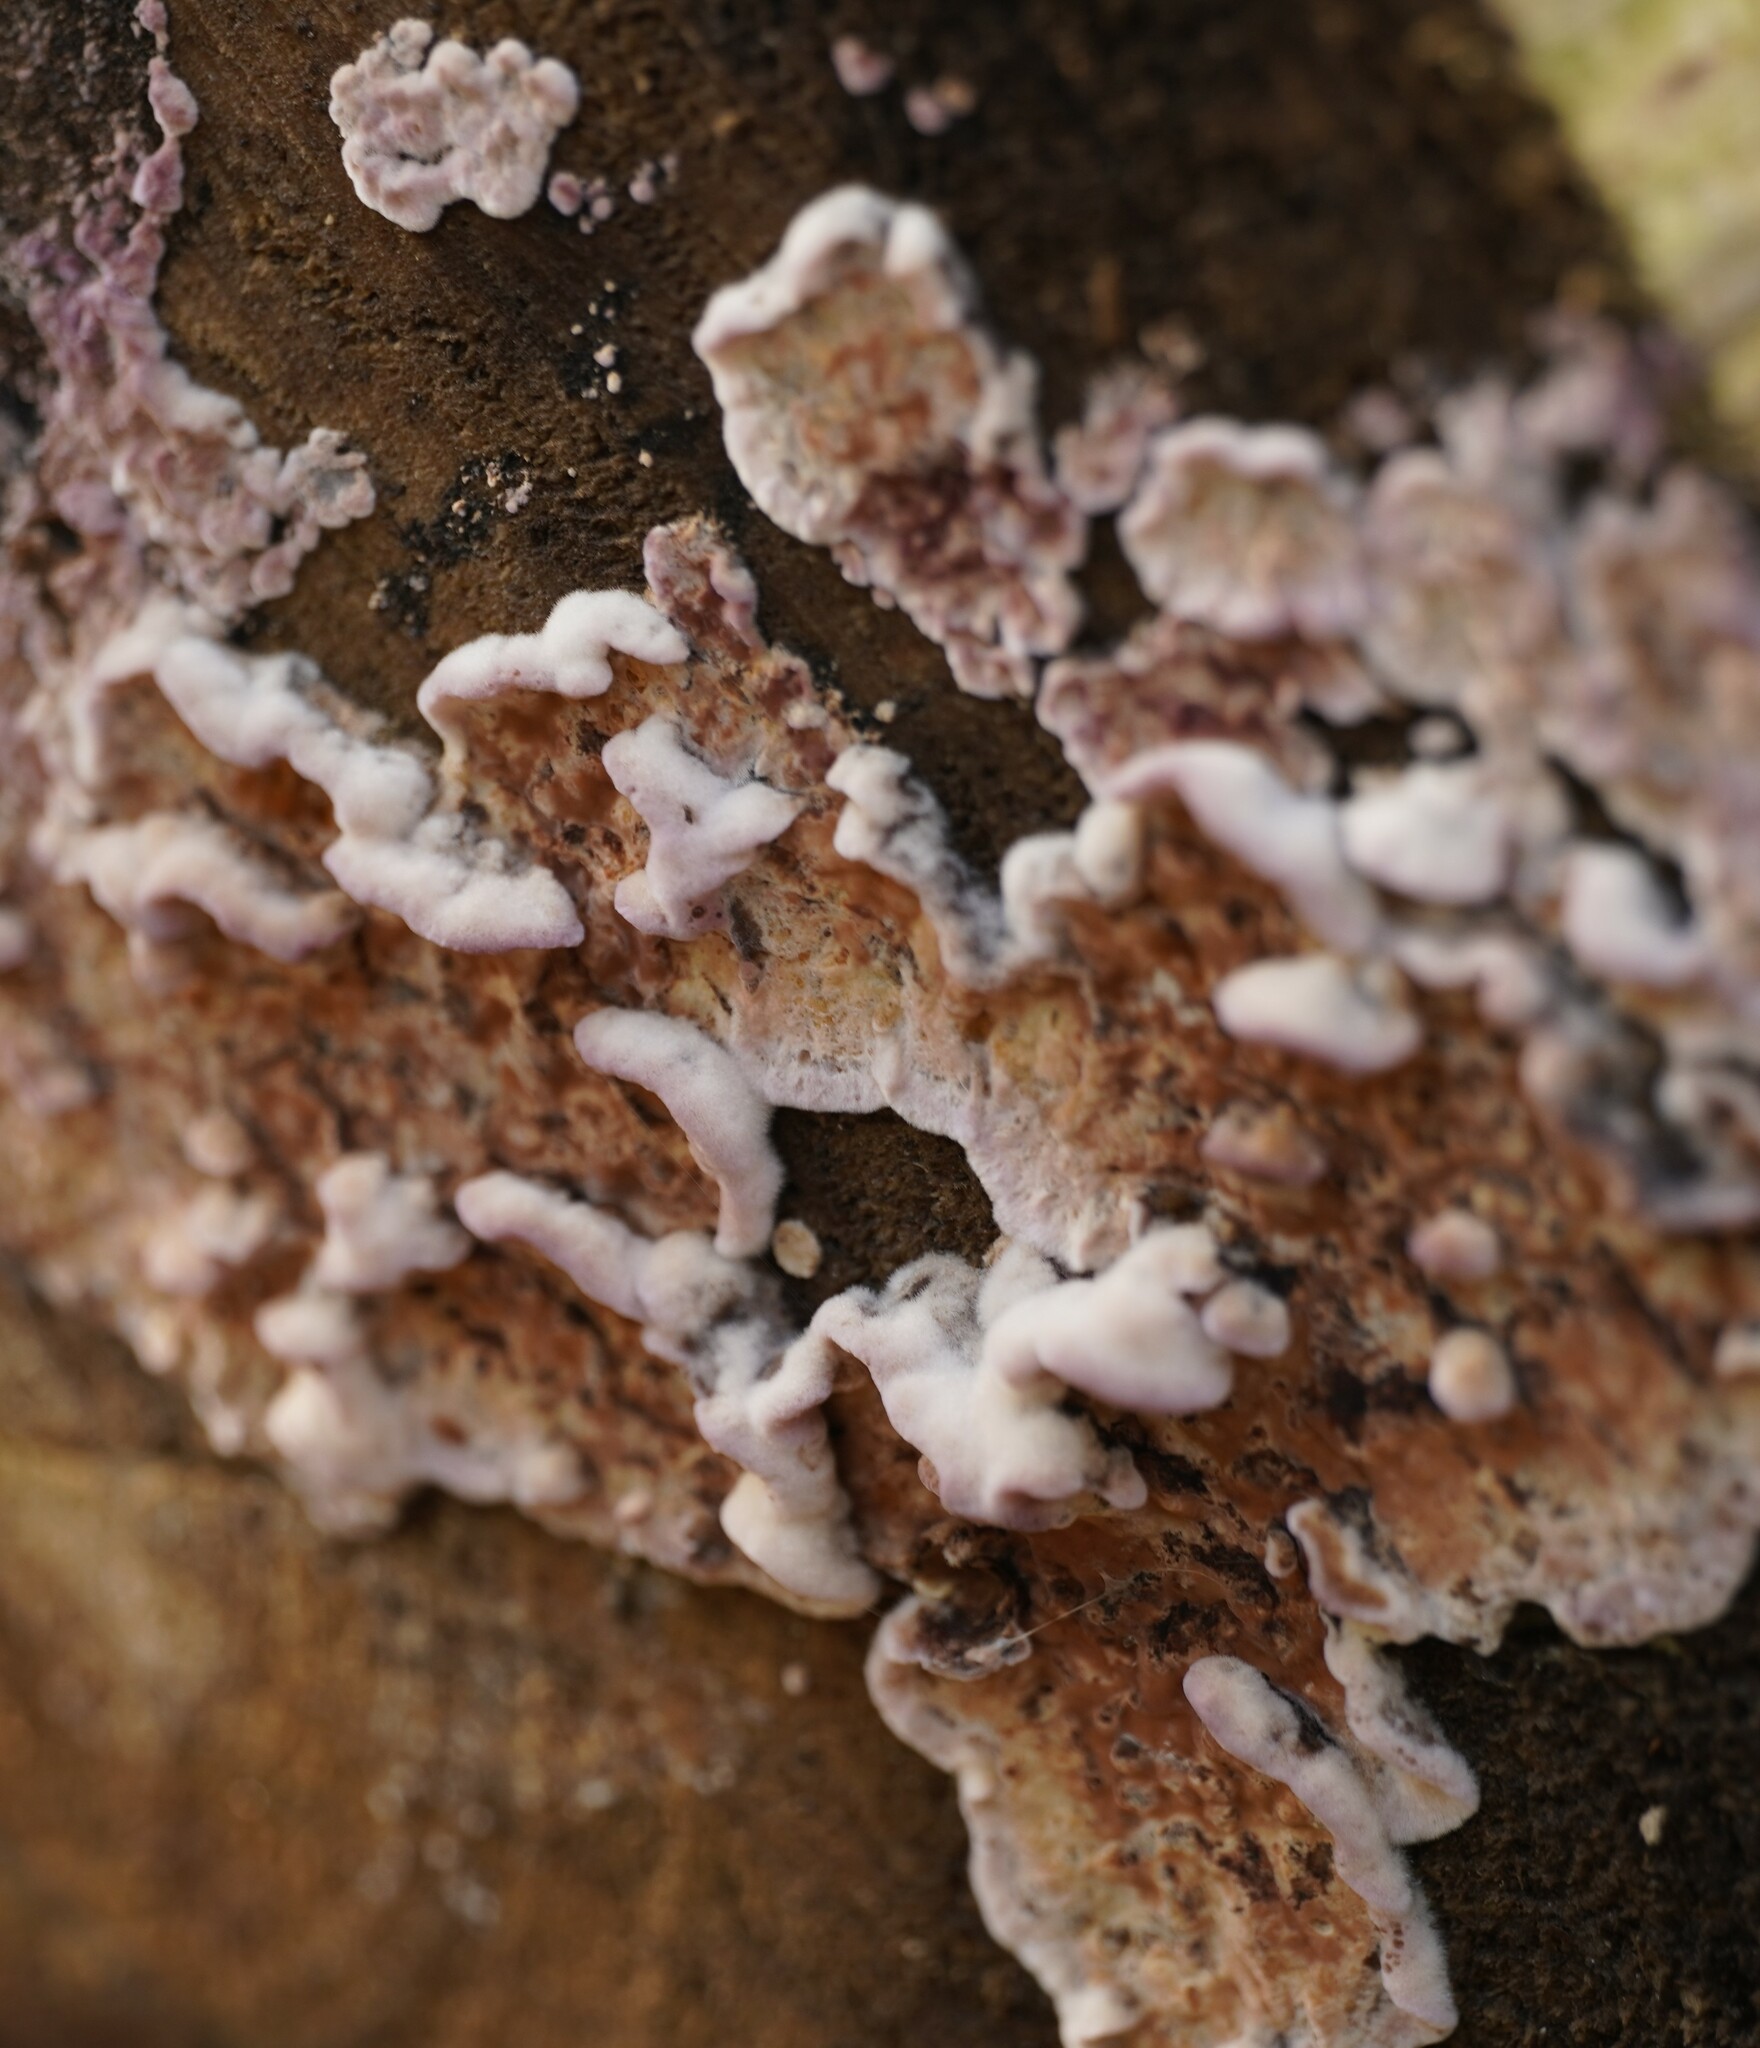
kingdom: Fungi
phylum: Basidiomycota
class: Agaricomycetes
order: Agaricales
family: Cyphellaceae
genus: Chondrostereum
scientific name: Chondrostereum purpureum
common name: Silver leaf disease
